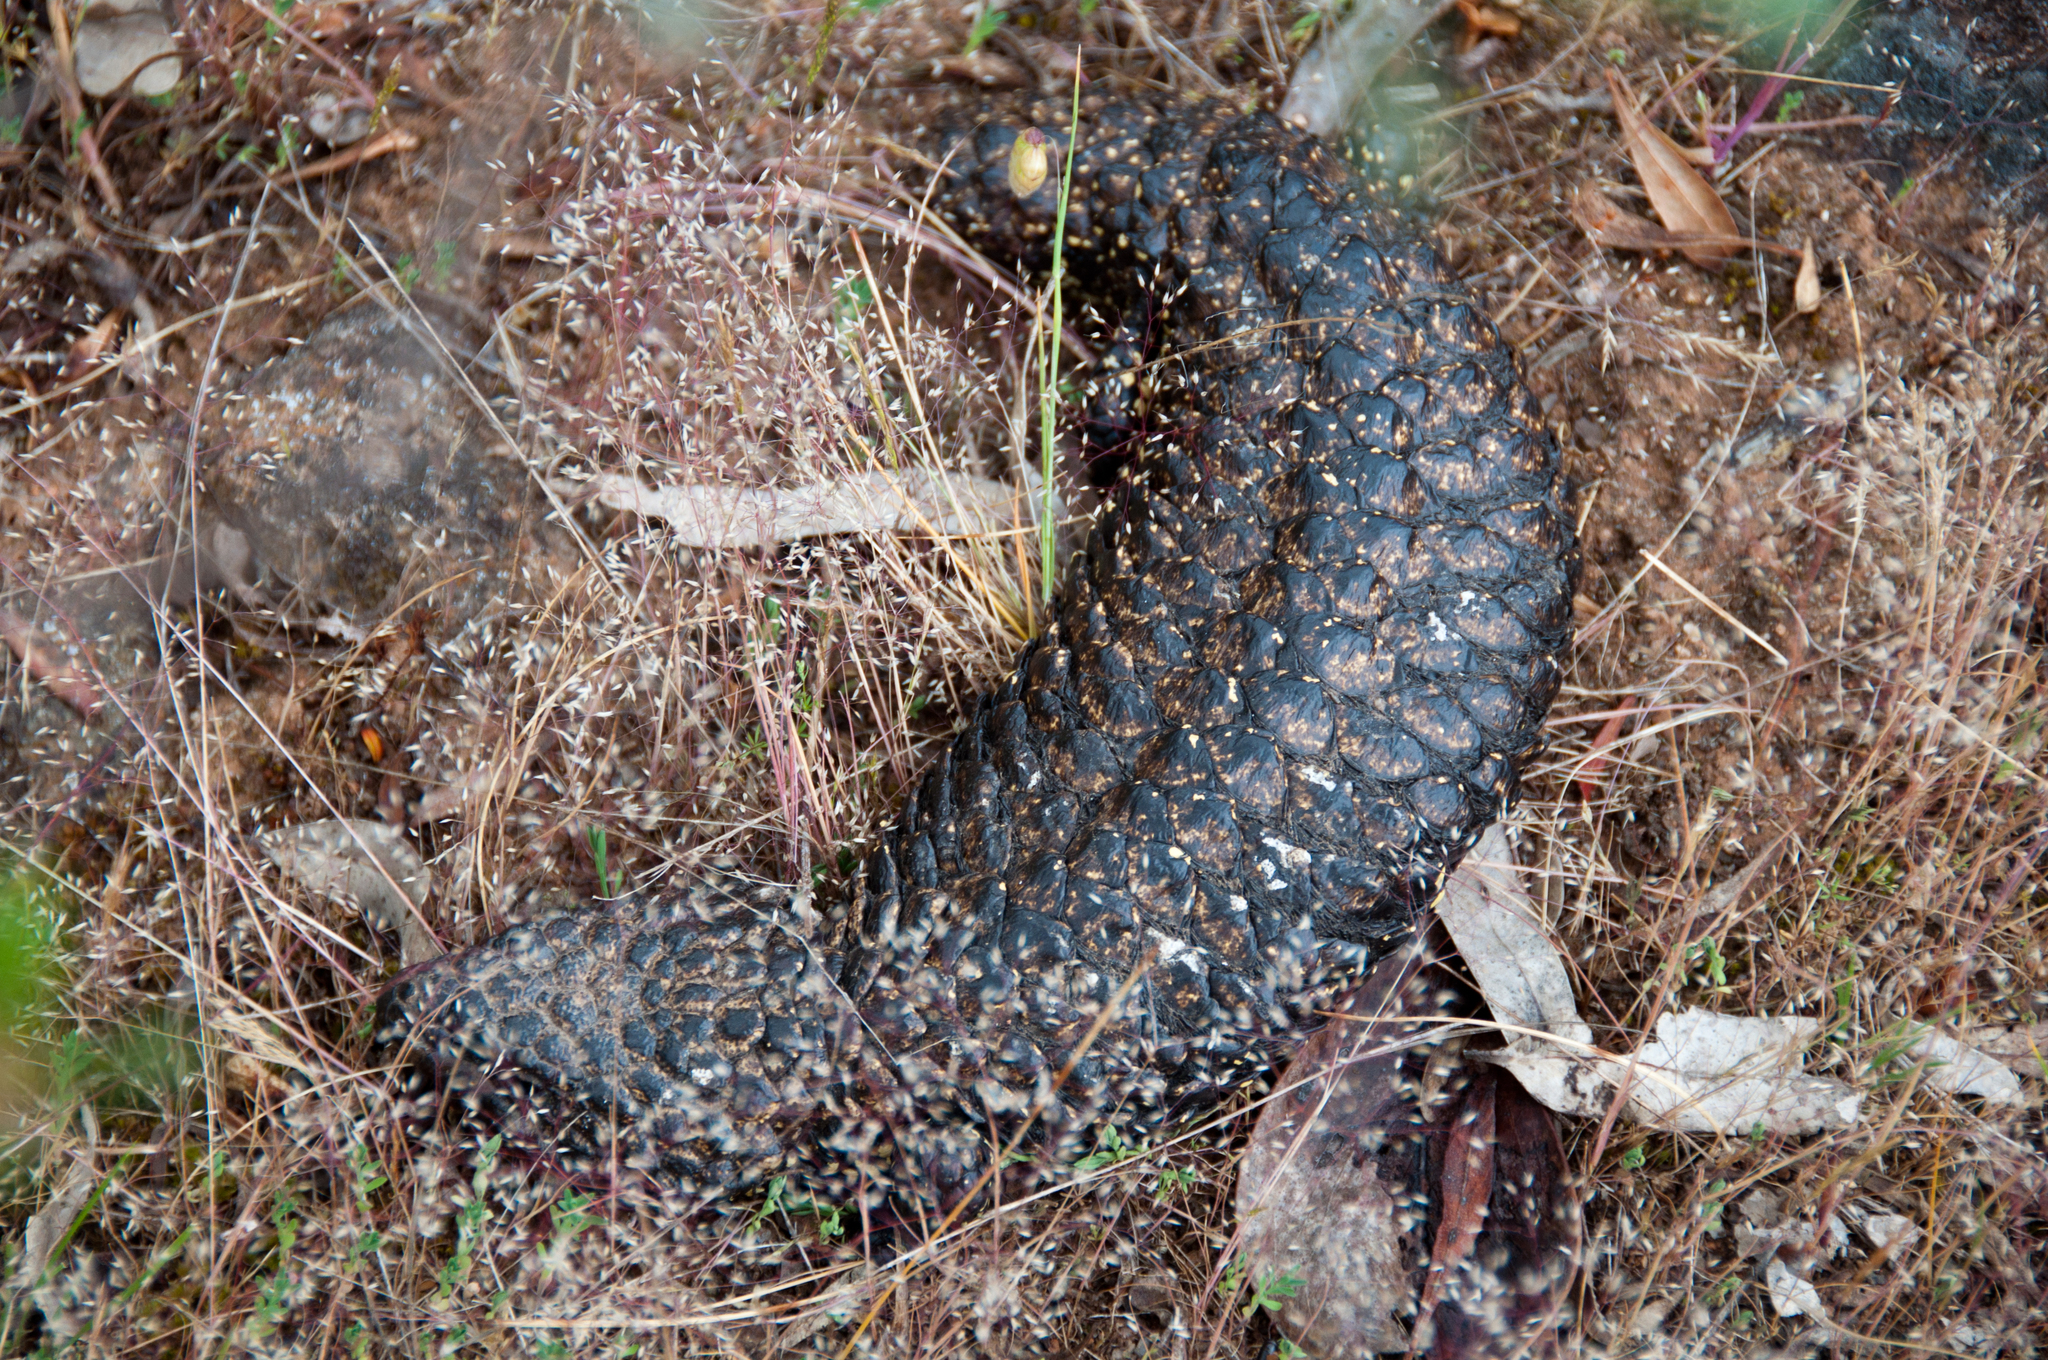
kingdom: Animalia
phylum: Chordata
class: Squamata
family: Scincidae
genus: Tiliqua
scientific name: Tiliqua rugosa
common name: Pinecone lizard
